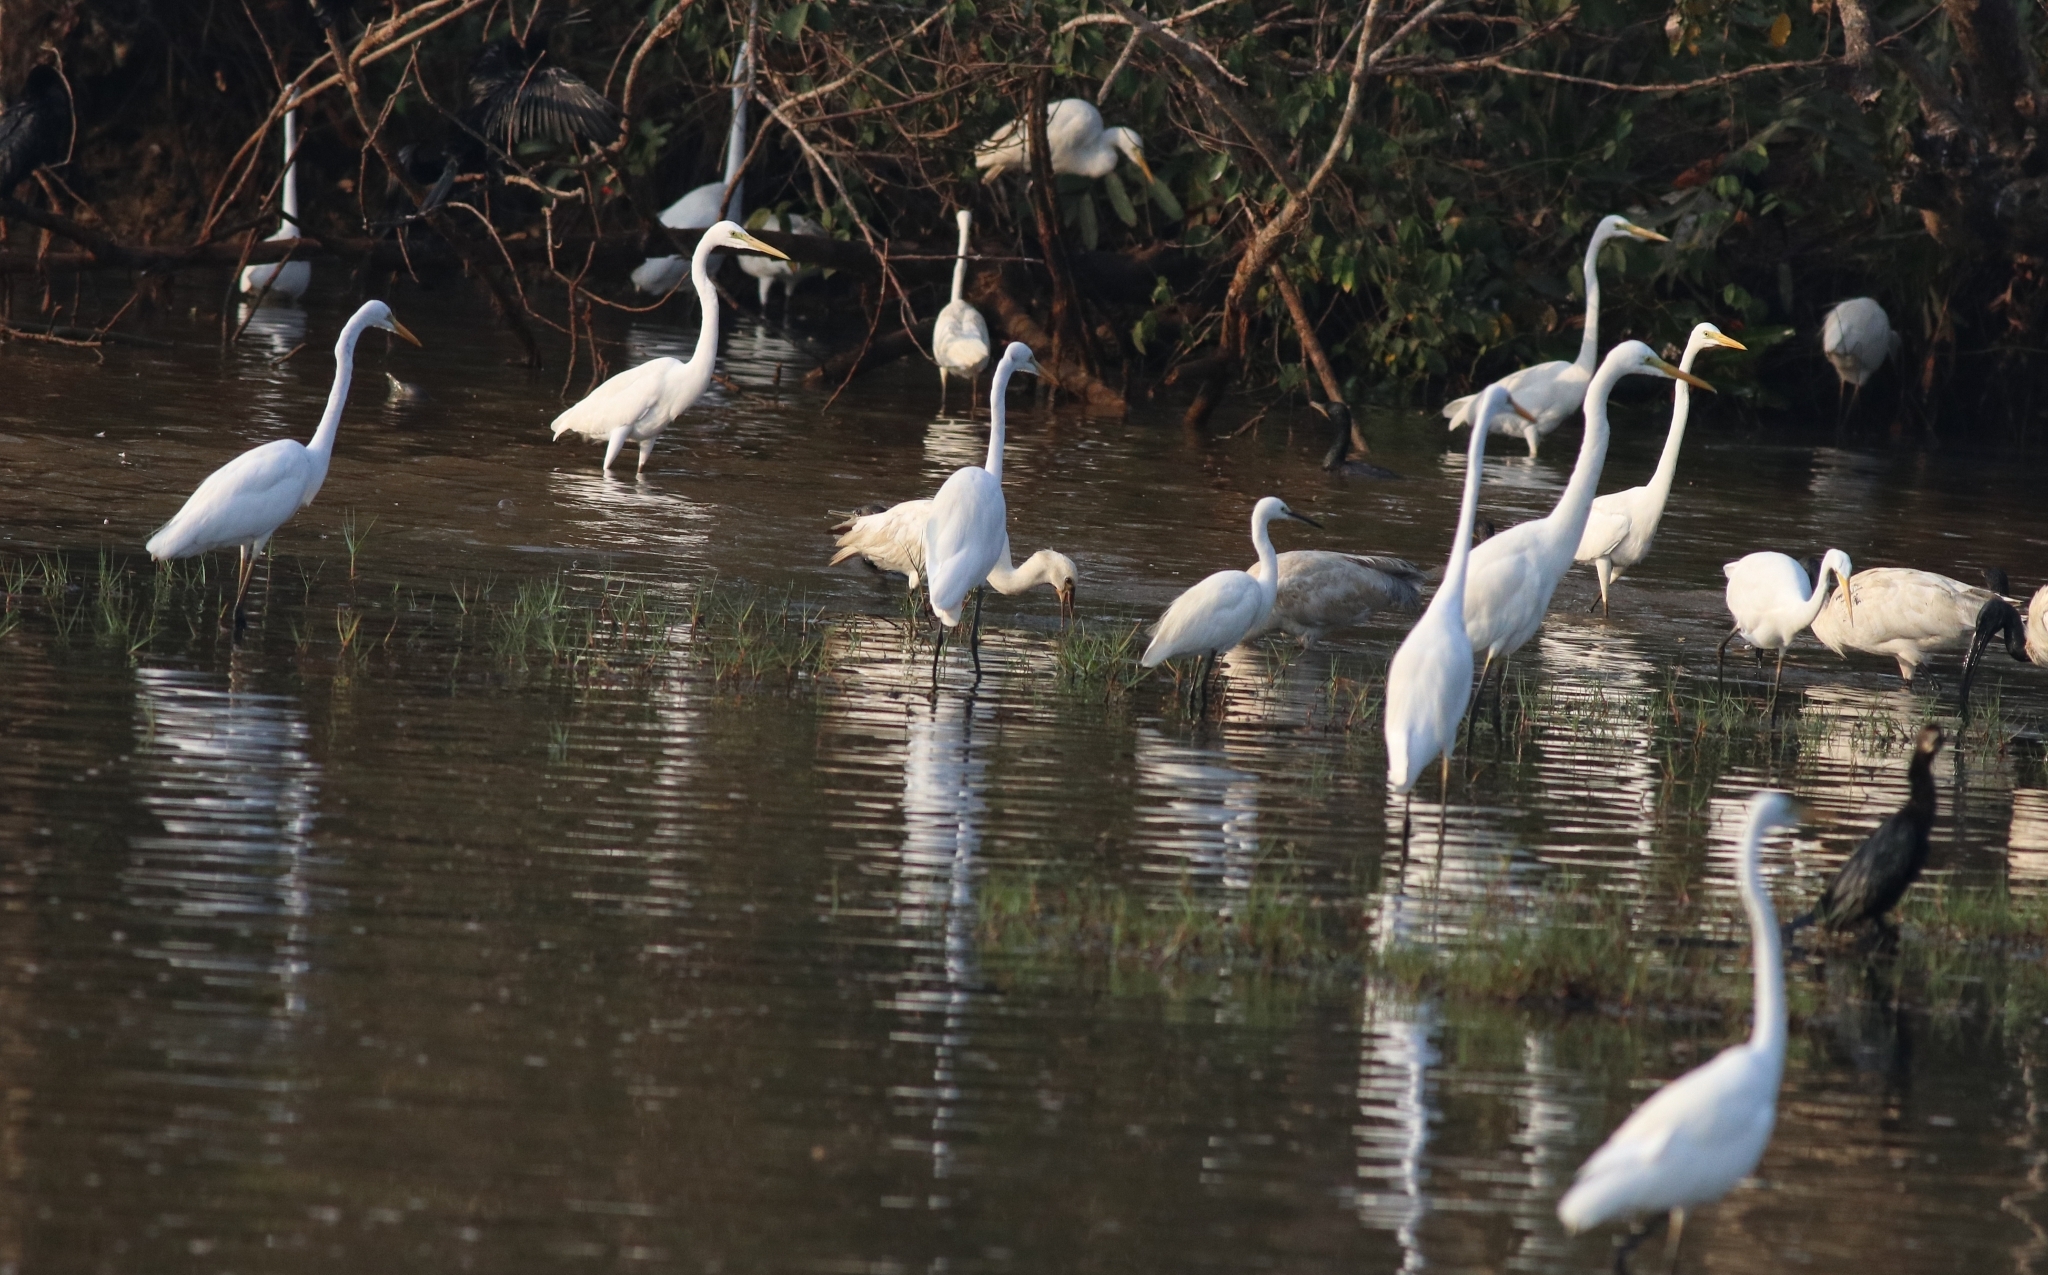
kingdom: Animalia
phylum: Chordata
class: Aves
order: Pelecaniformes
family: Ardeidae
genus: Egretta
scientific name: Egretta garzetta
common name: Little egret
